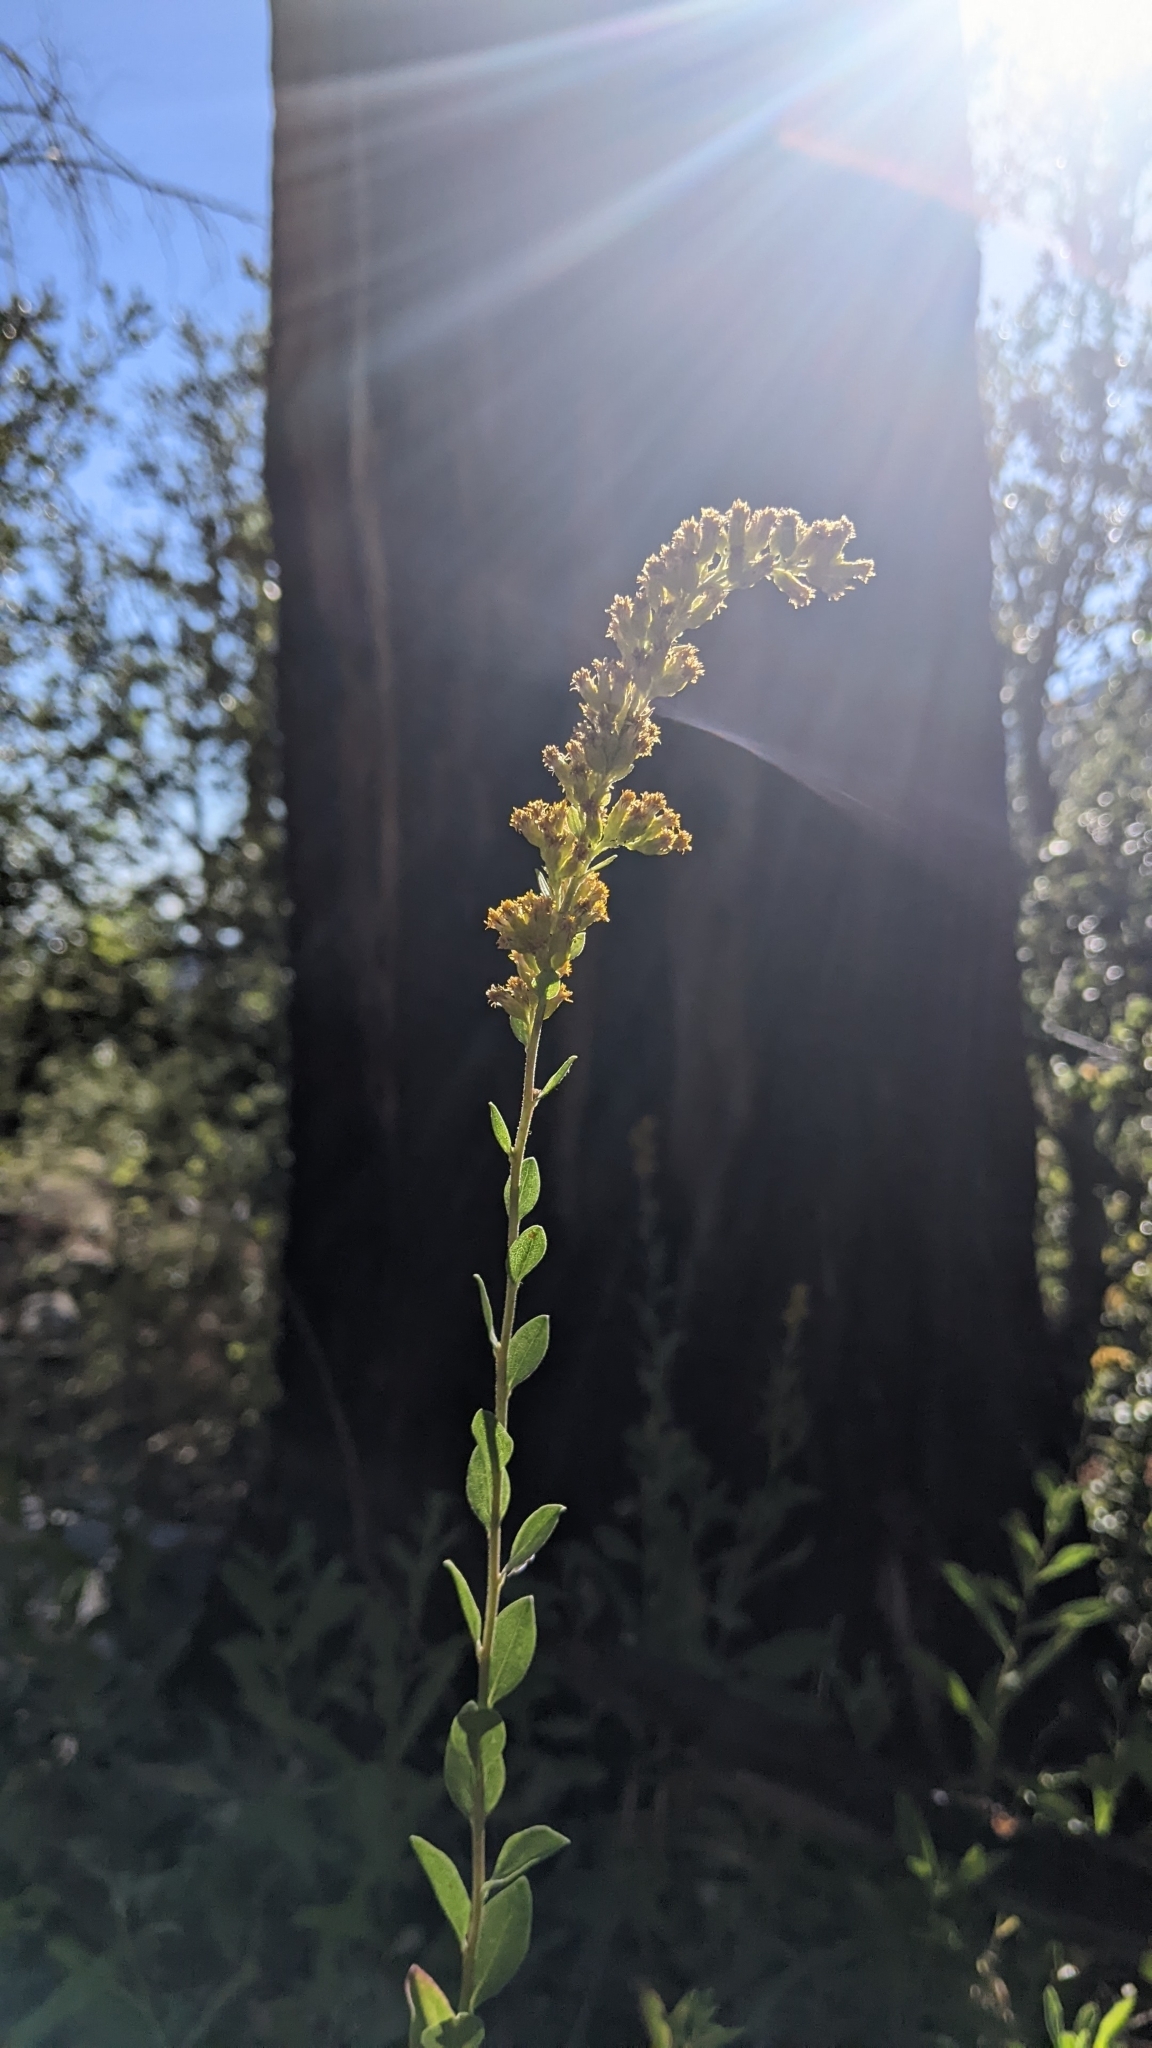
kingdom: Plantae
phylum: Tracheophyta
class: Magnoliopsida
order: Asterales
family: Asteraceae
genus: Solidago
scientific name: Solidago velutina
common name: Three-nerve goldenrod
